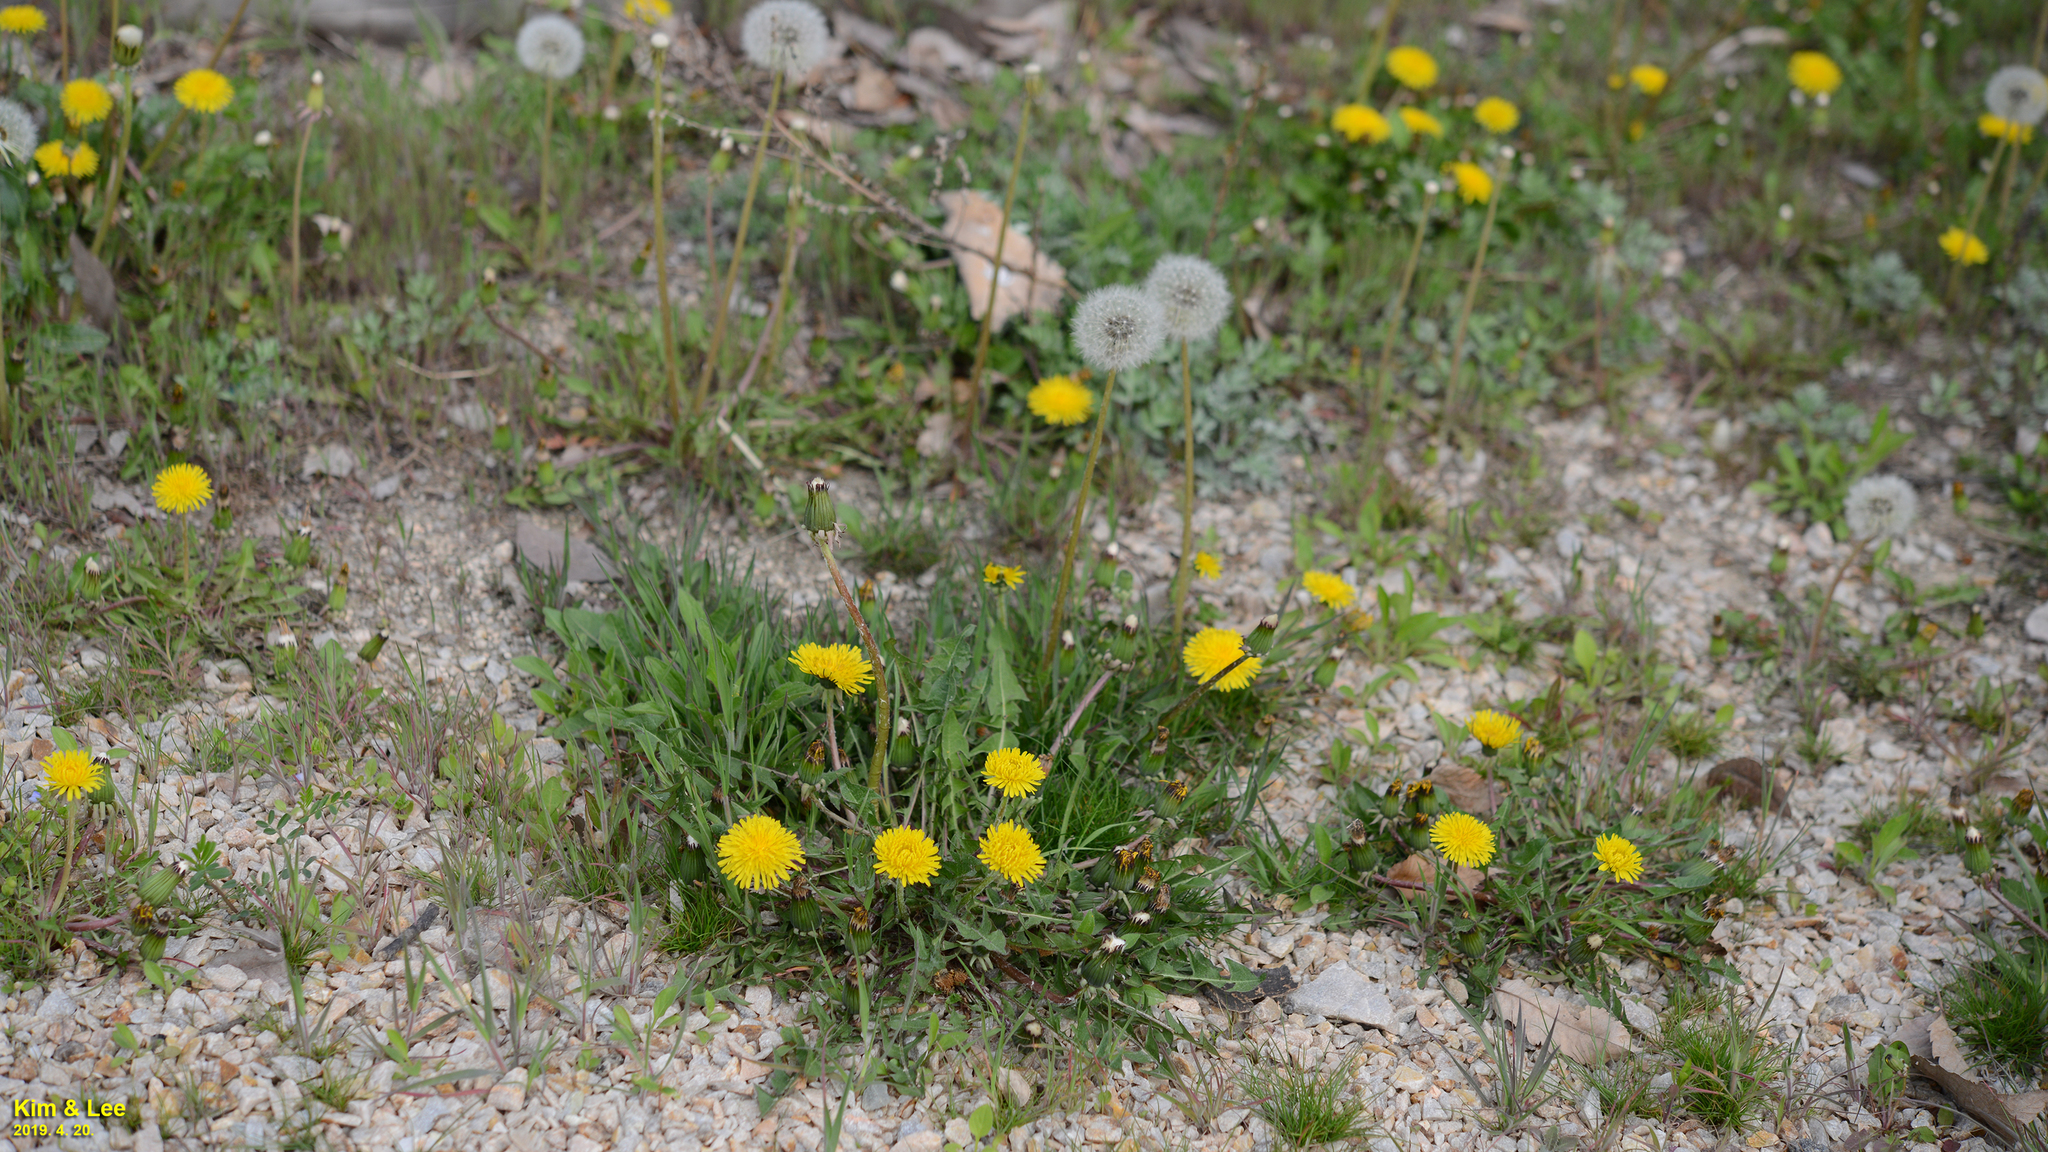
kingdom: Plantae
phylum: Tracheophyta
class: Magnoliopsida
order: Asterales
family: Asteraceae
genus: Taraxacum
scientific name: Taraxacum officinale
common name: Common dandelion
